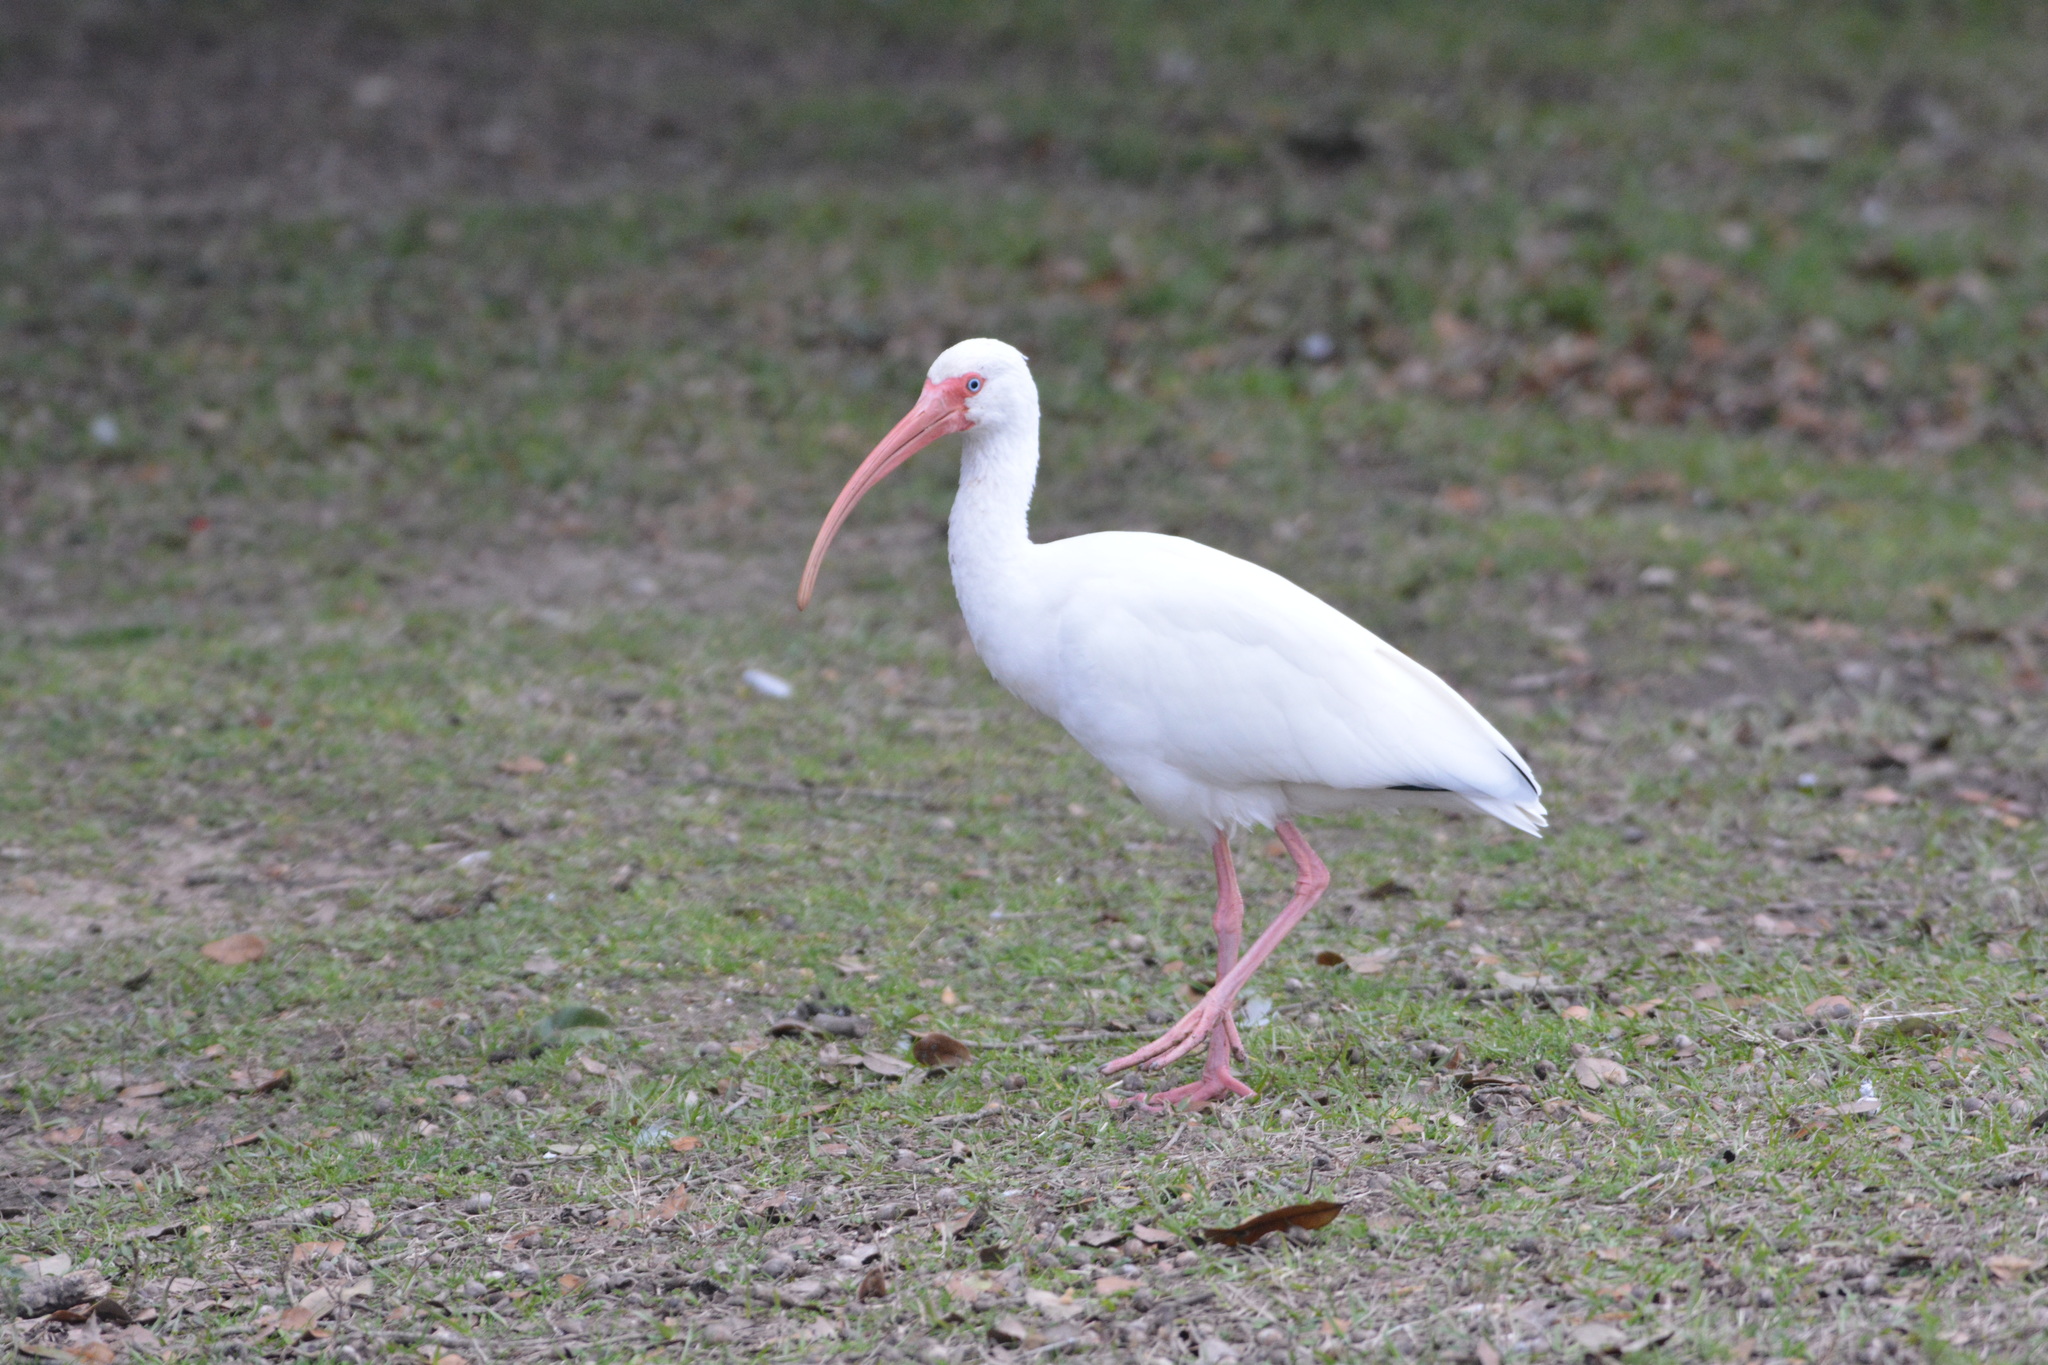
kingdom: Animalia
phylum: Chordata
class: Aves
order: Pelecaniformes
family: Threskiornithidae
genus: Eudocimus
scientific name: Eudocimus albus
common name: White ibis
